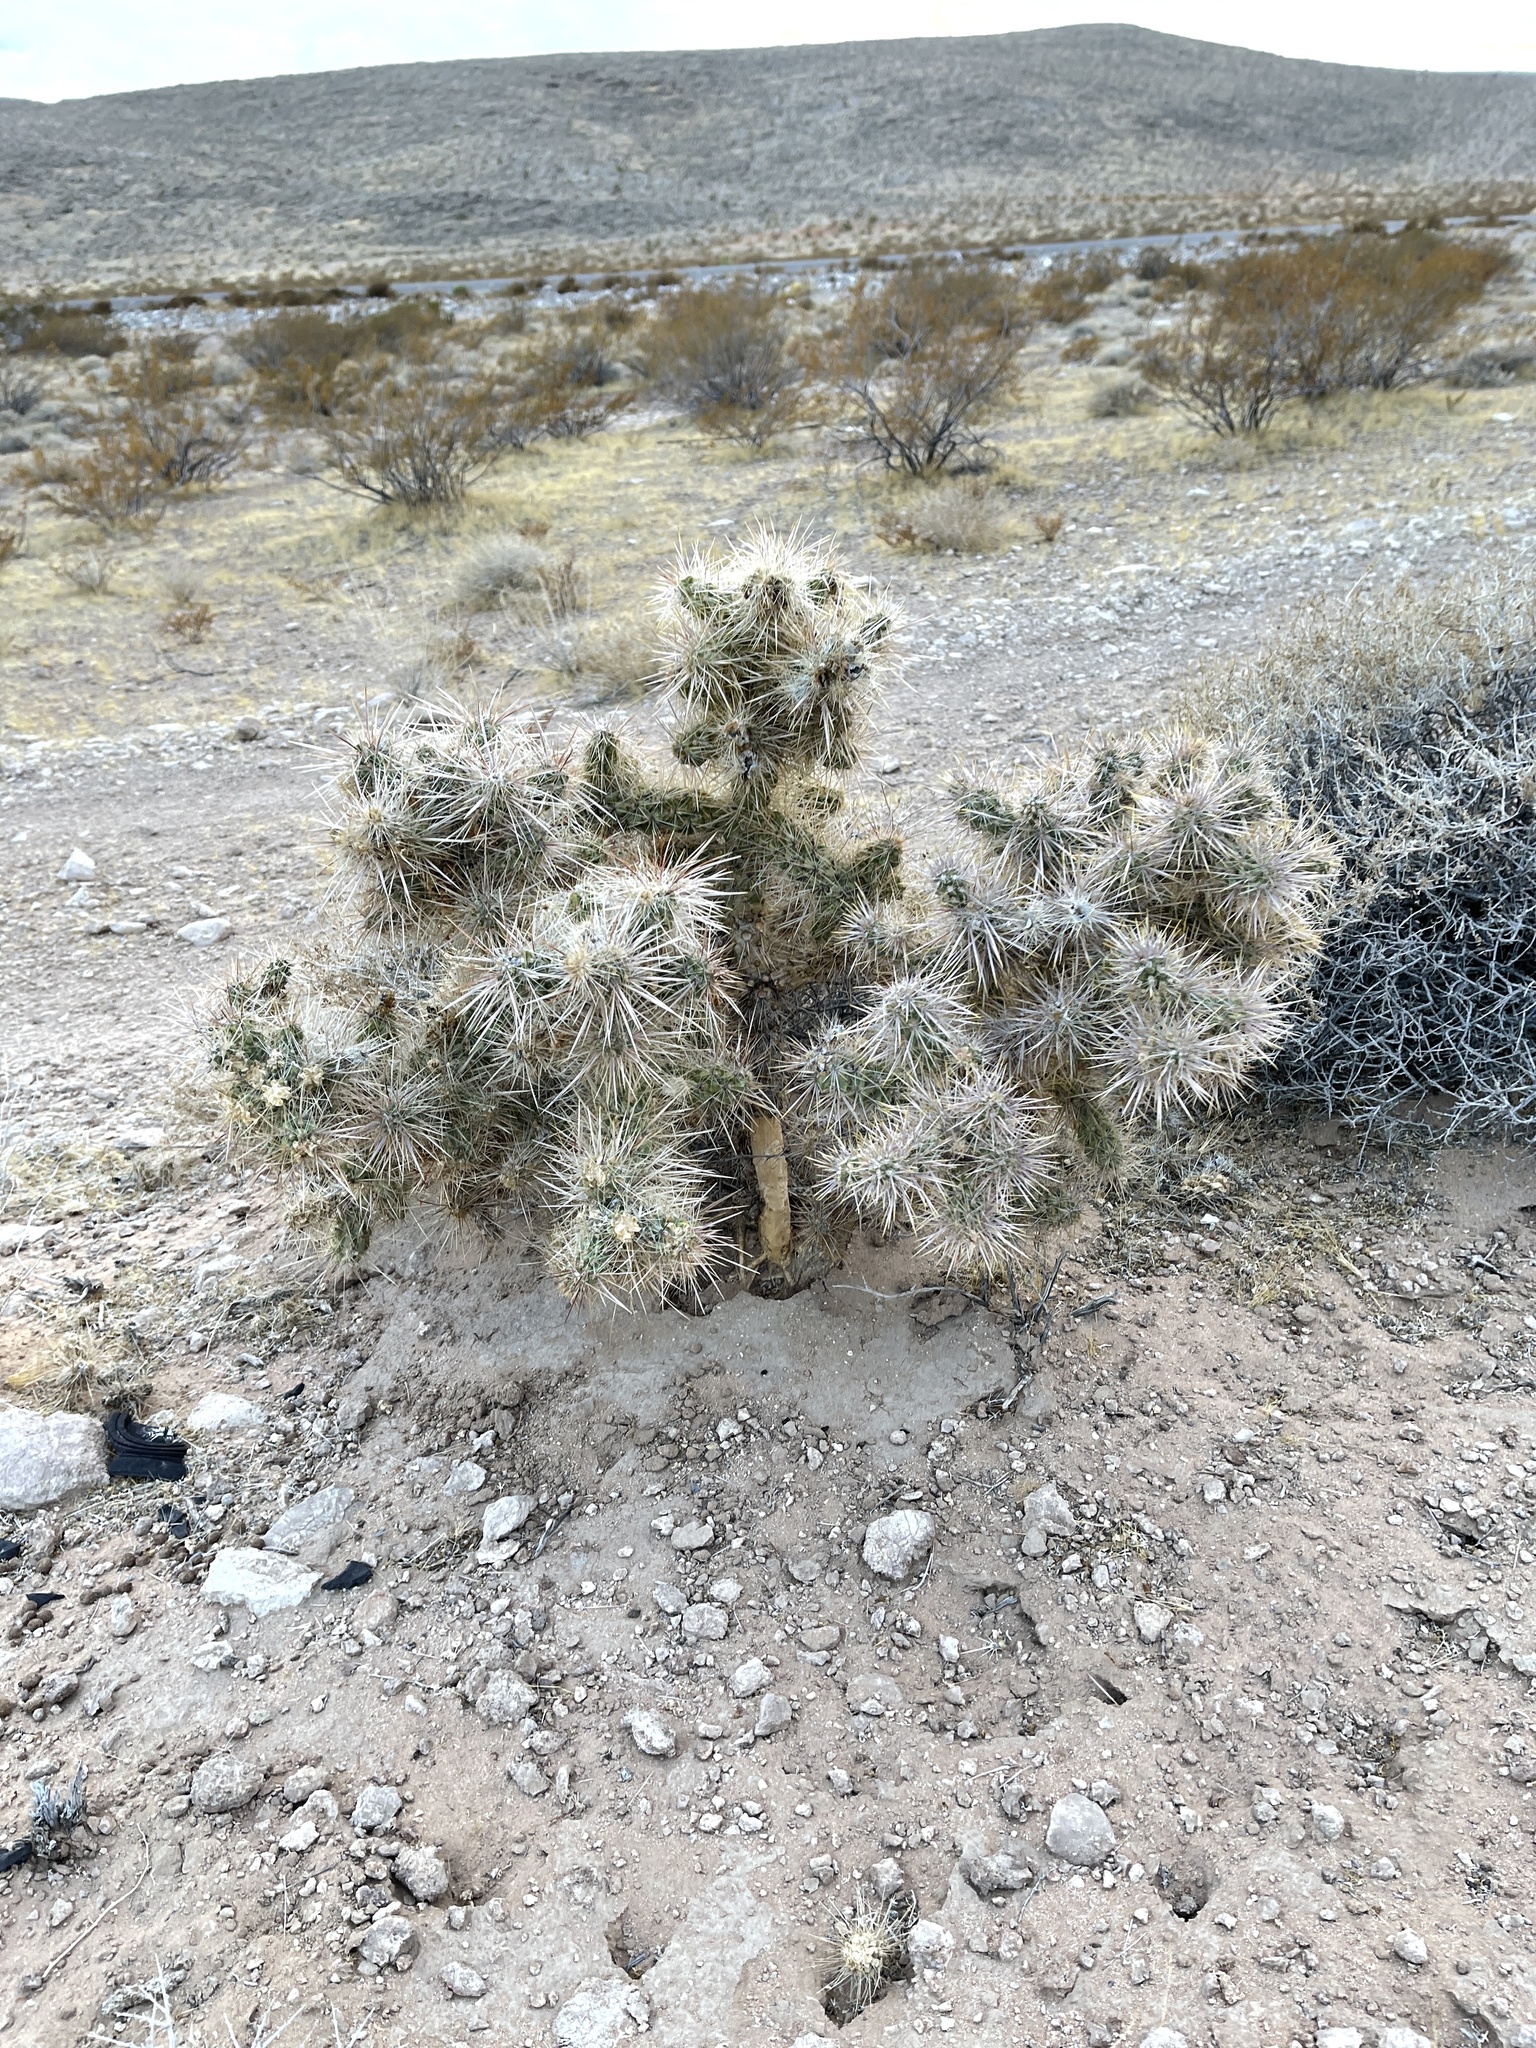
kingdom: Plantae
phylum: Tracheophyta
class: Magnoliopsida
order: Caryophyllales
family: Cactaceae
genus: Cylindropuntia
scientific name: Cylindropuntia echinocarpa
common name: Ground cholla
